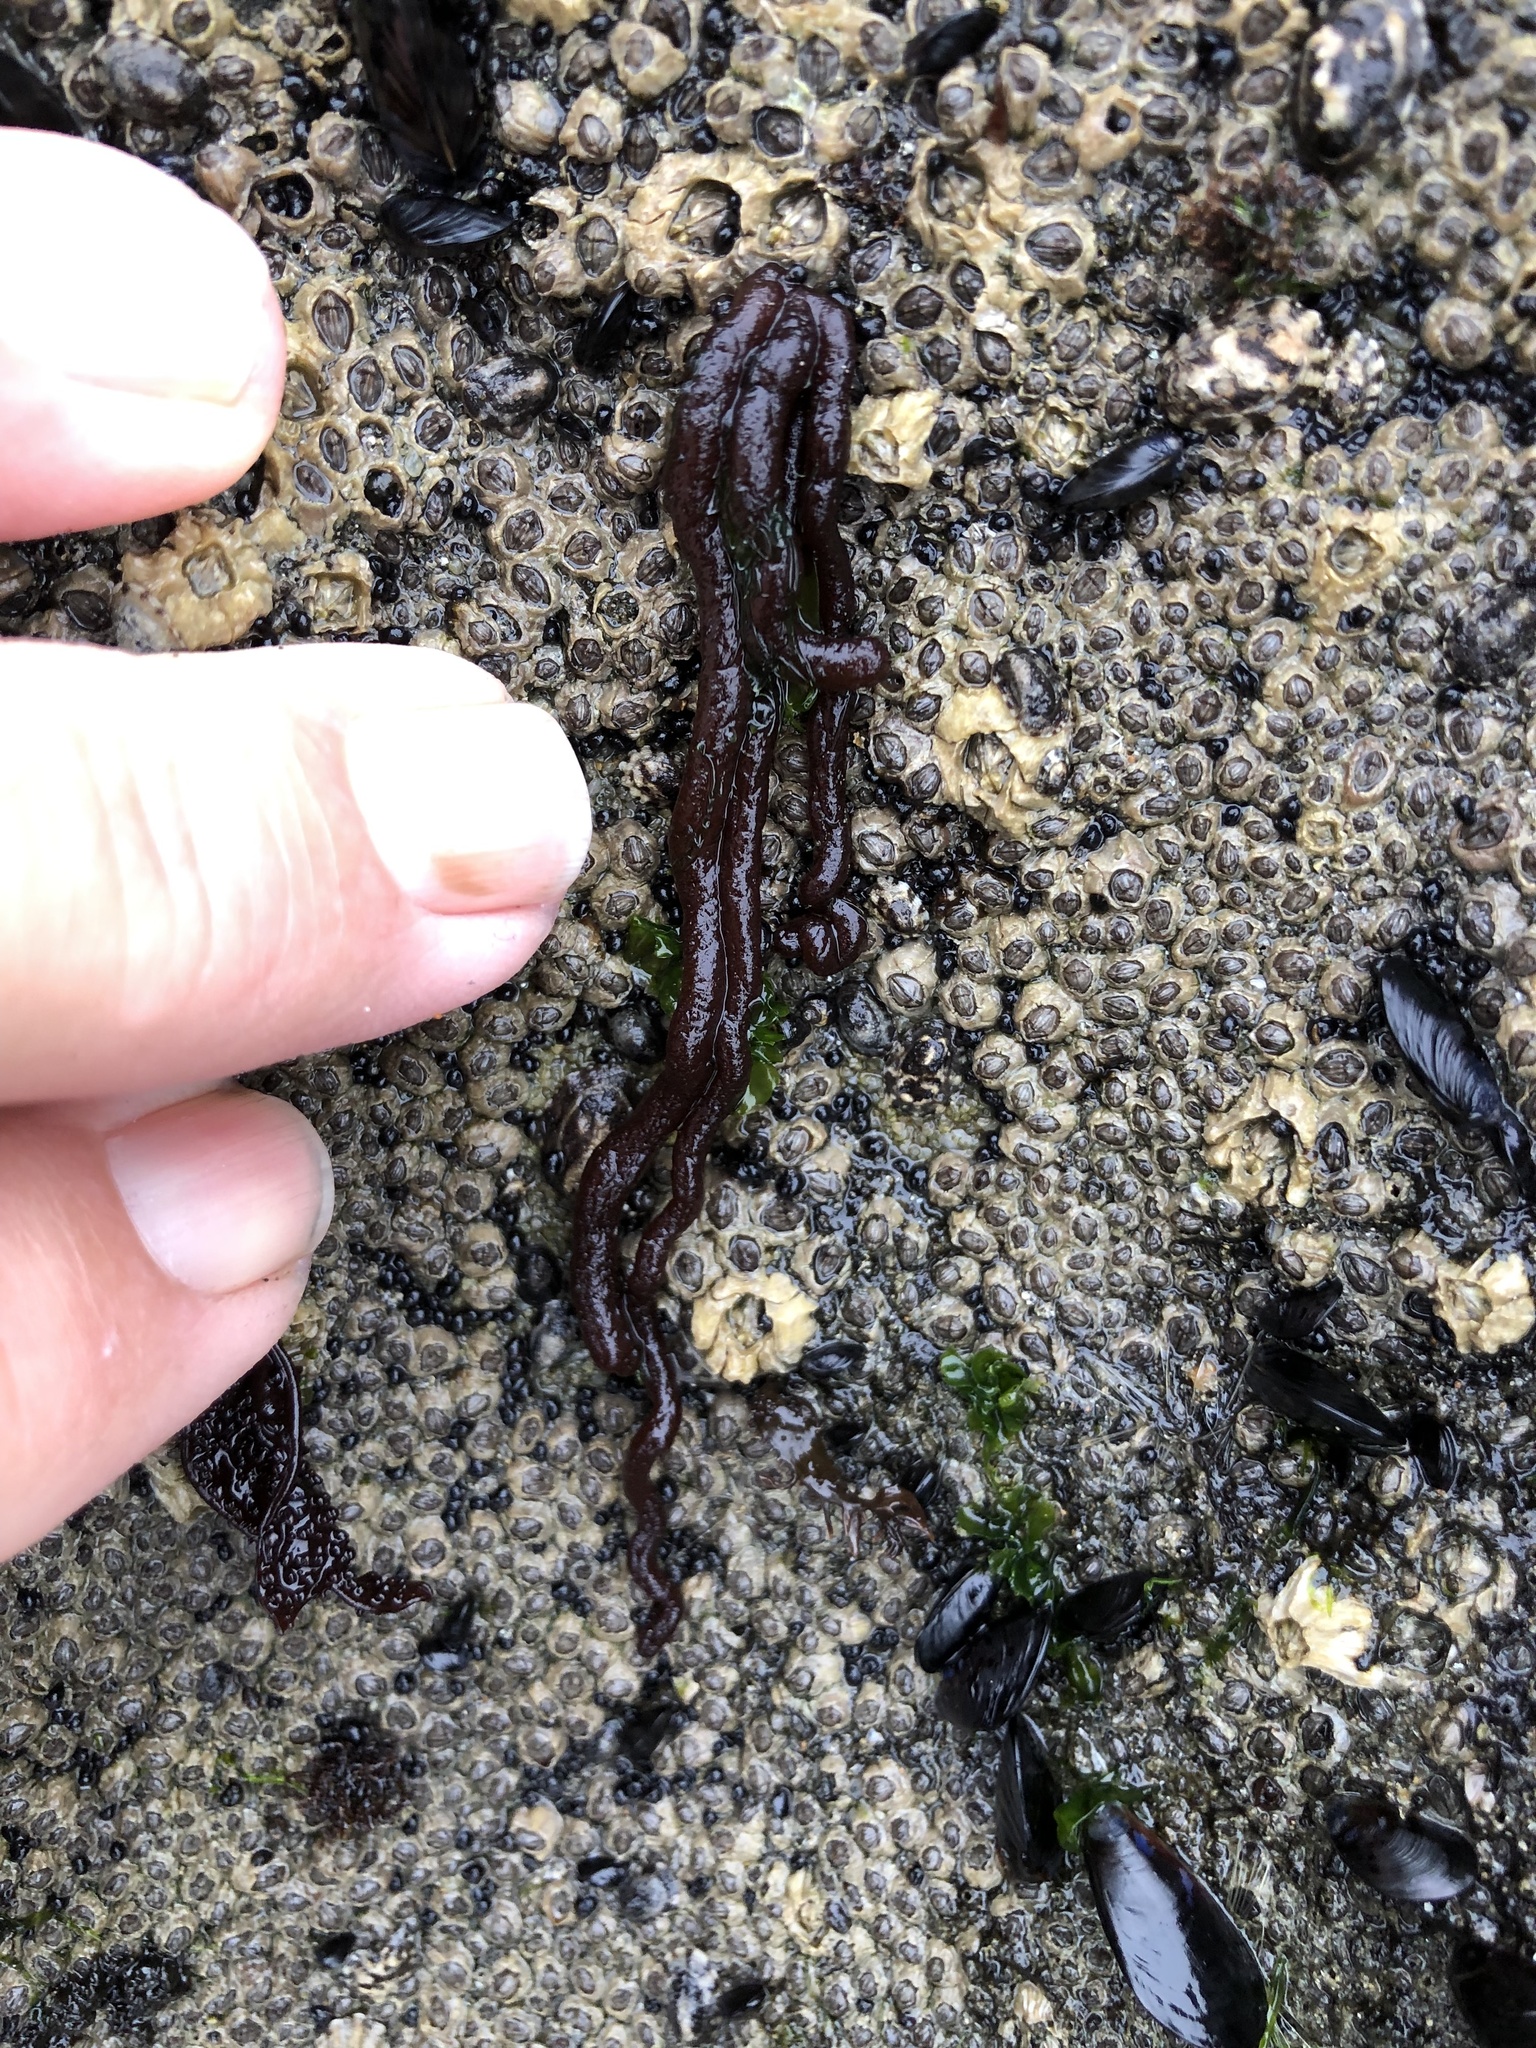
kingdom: Plantae
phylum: Rhodophyta
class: Florideophyceae
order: Nemaliales
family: Nemaliaceae
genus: Nemalion
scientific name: Nemalion elminthoides
